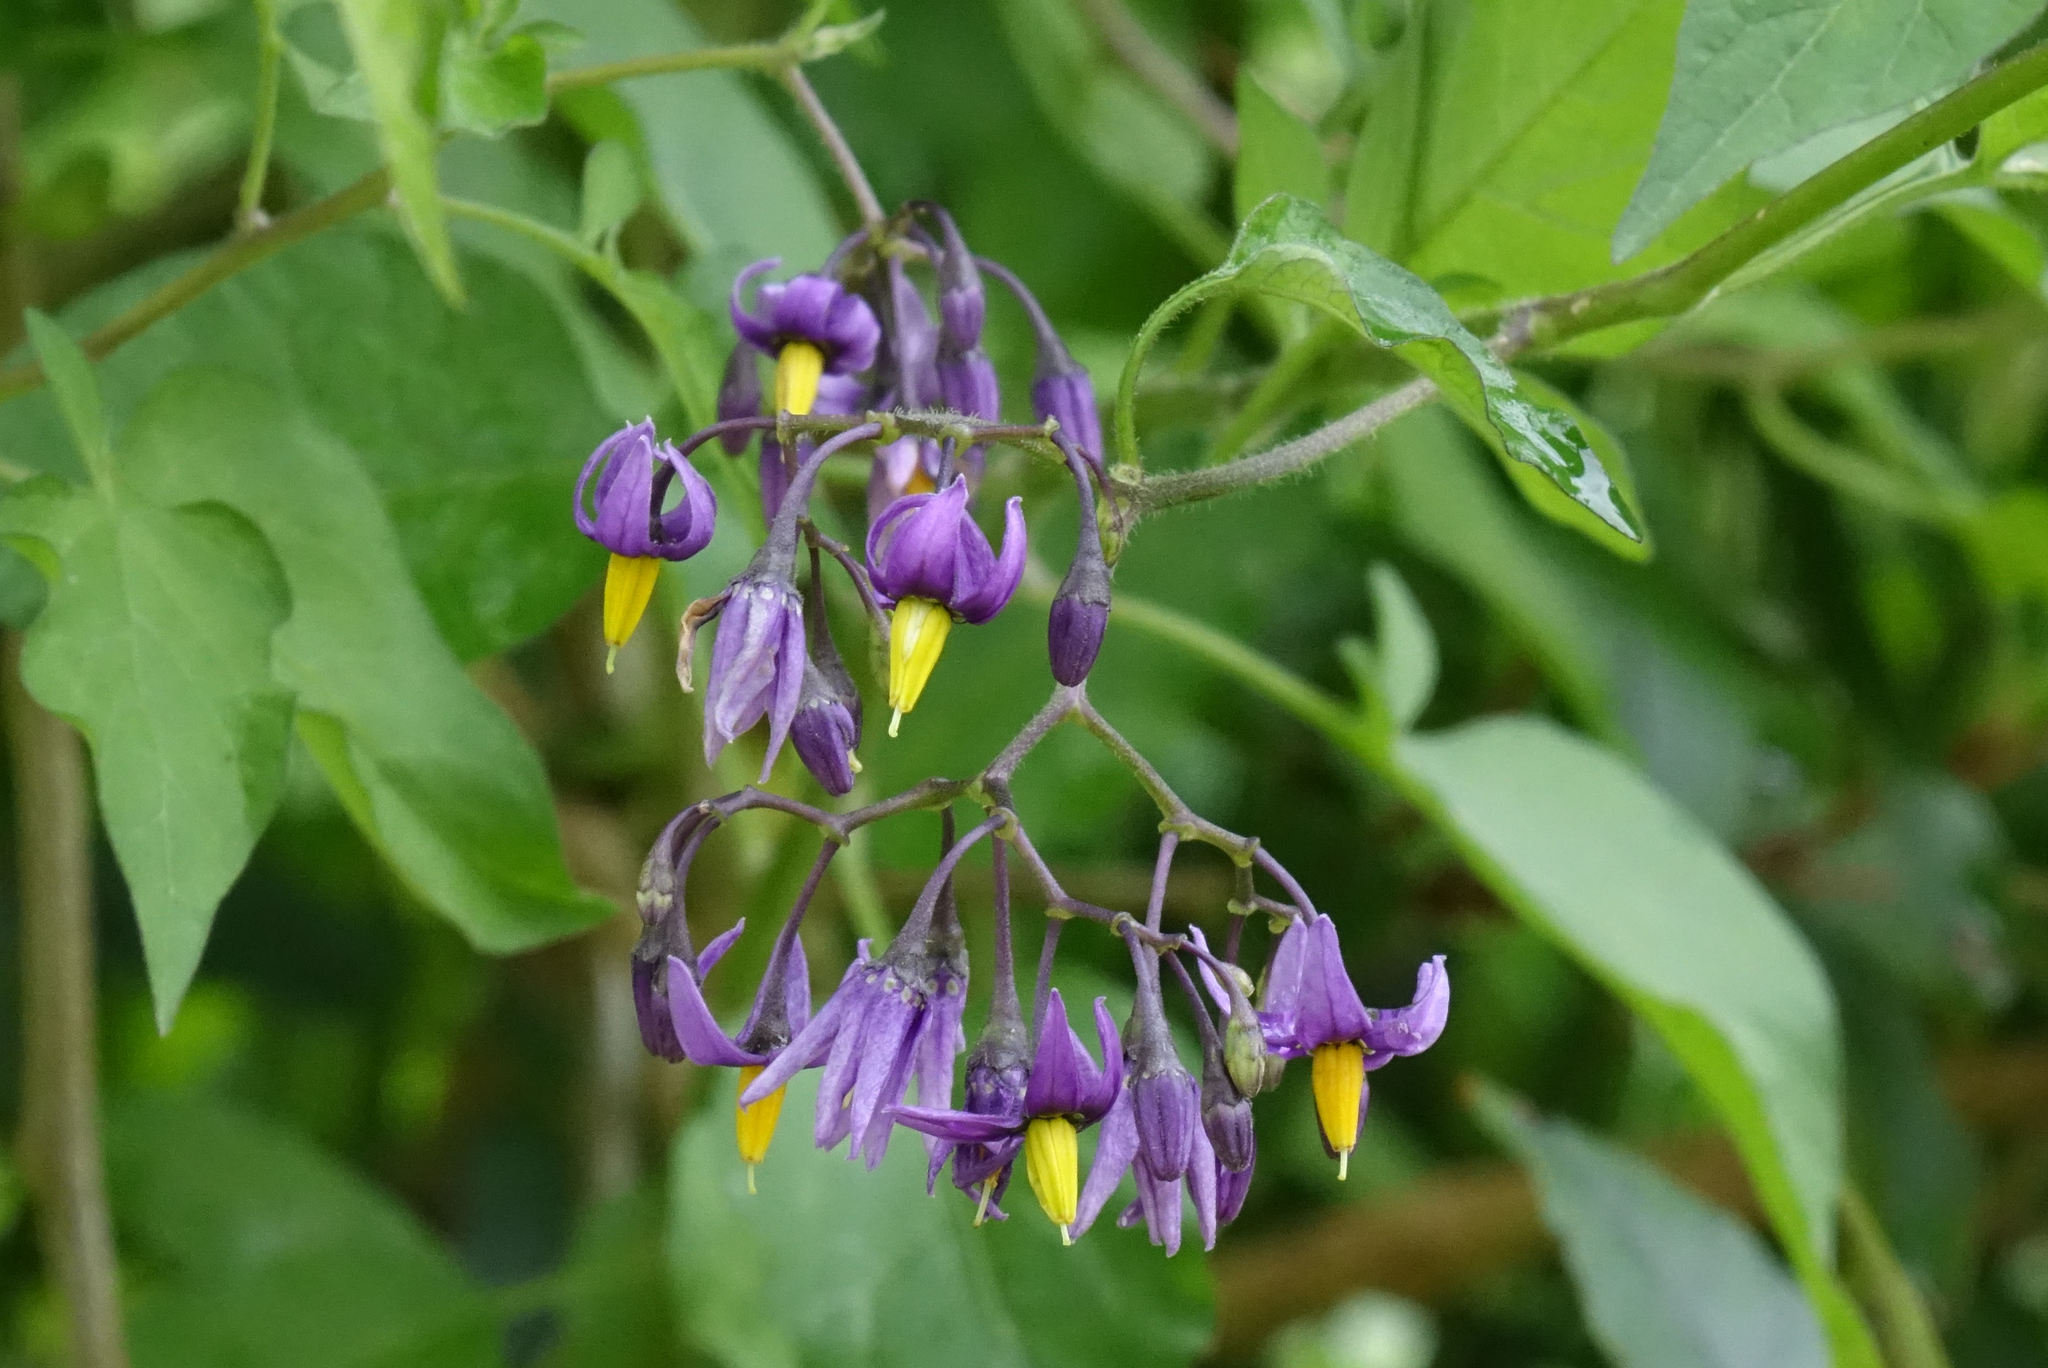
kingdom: Plantae
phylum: Tracheophyta
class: Magnoliopsida
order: Solanales
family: Solanaceae
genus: Solanum
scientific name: Solanum dulcamara
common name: Climbing nightshade
